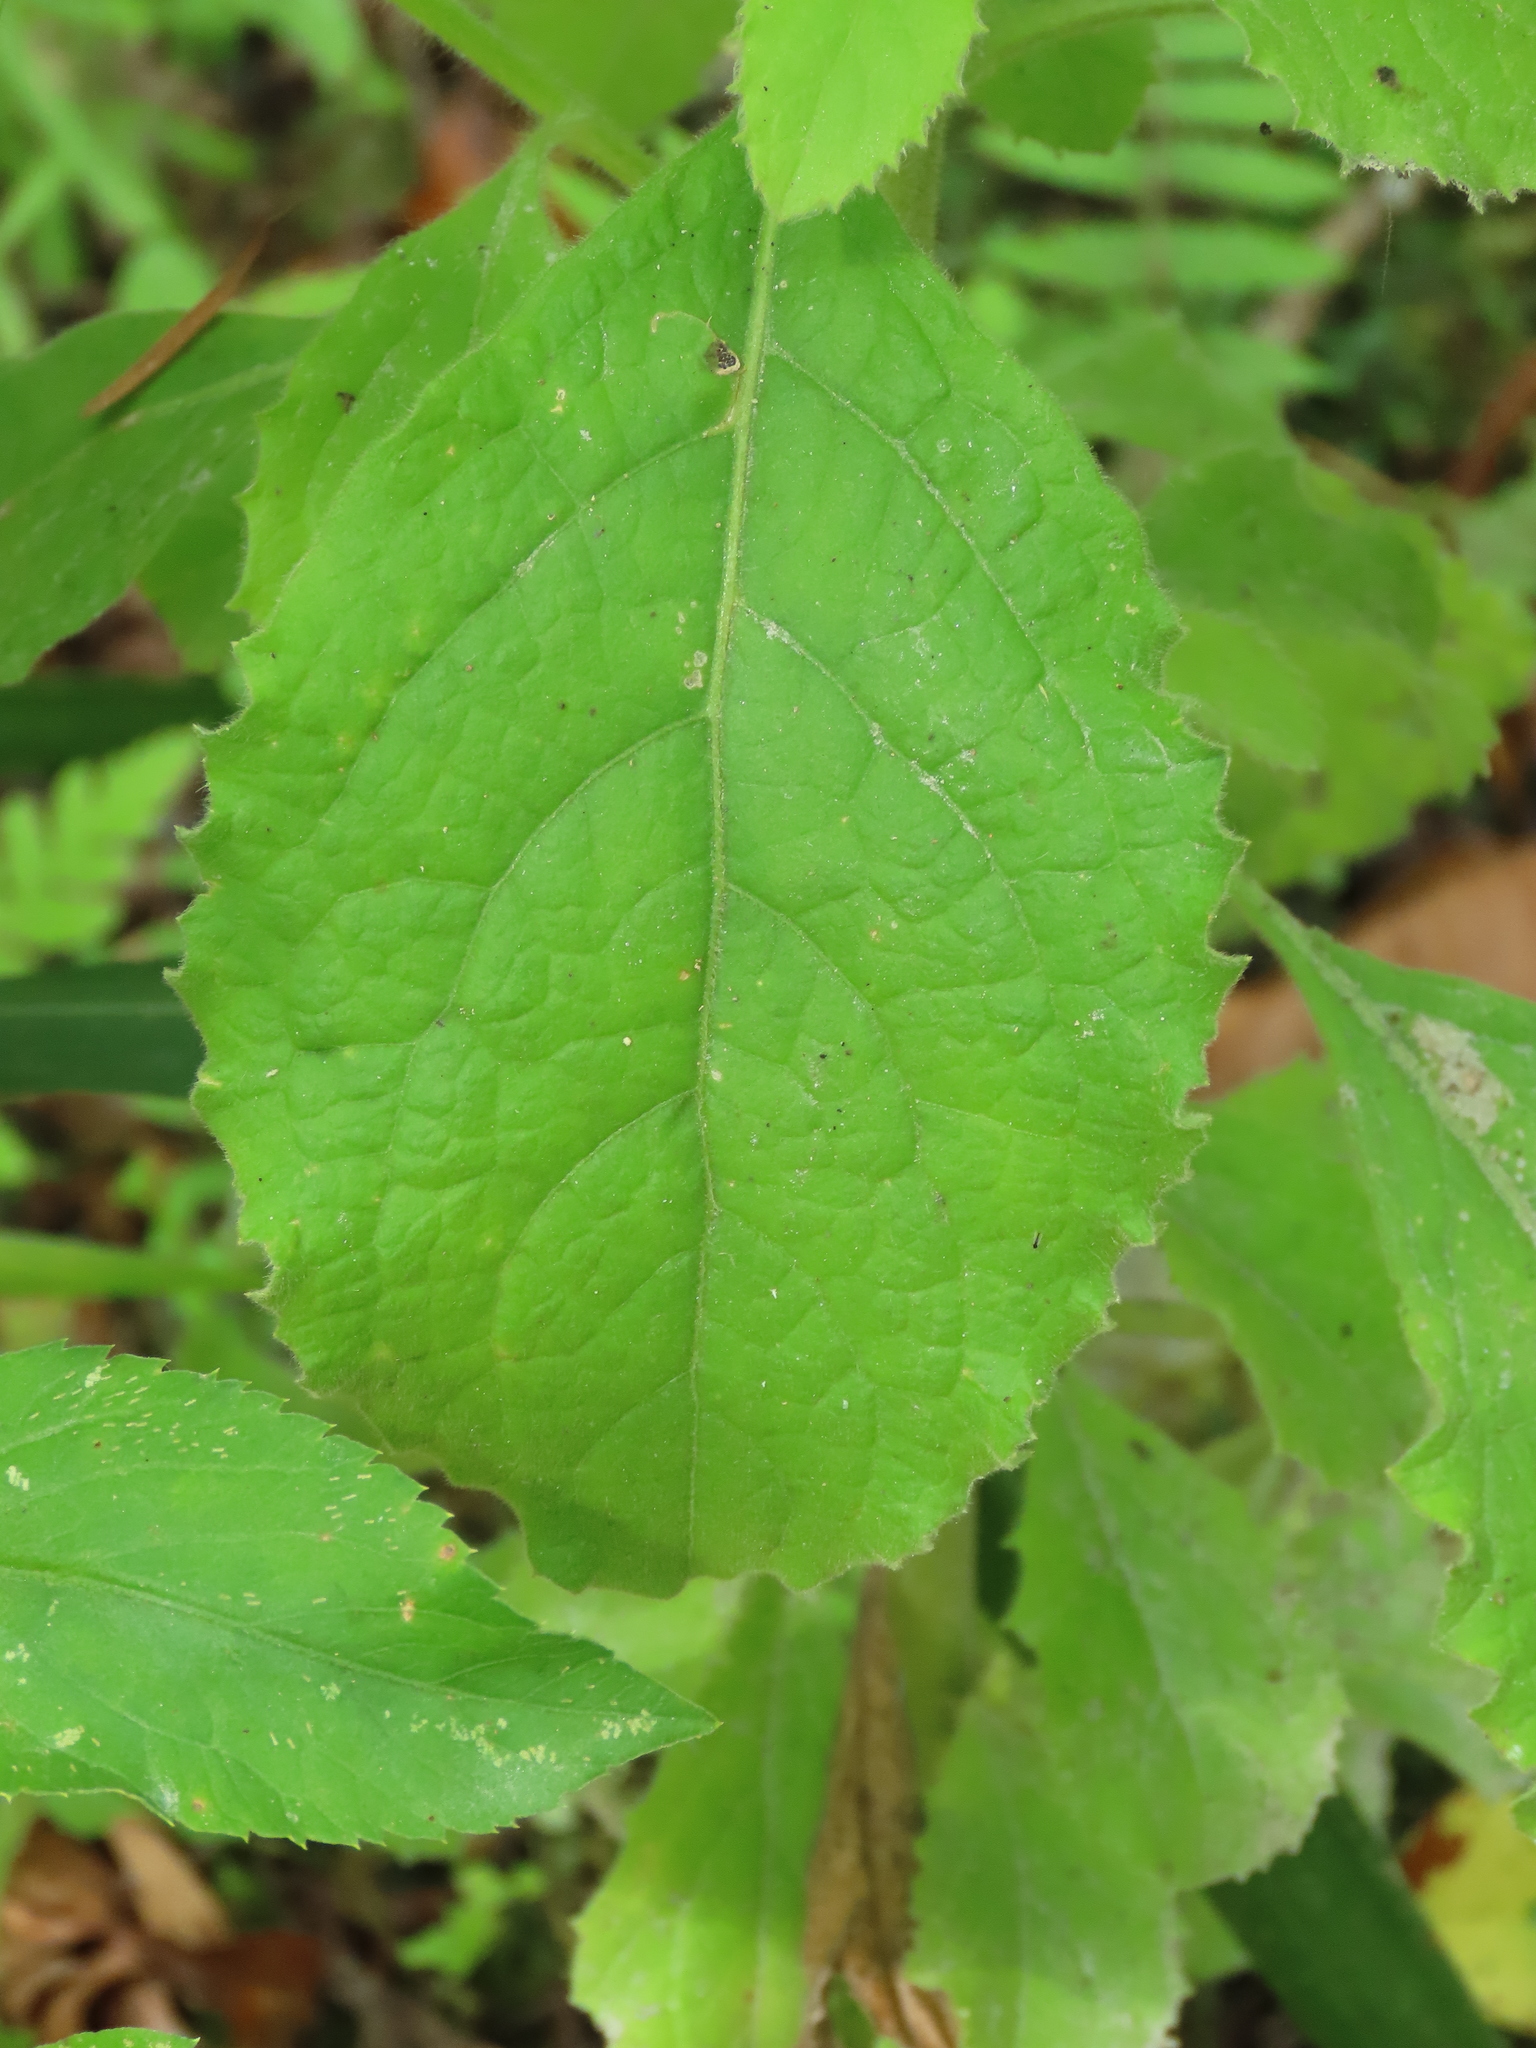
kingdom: Plantae
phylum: Tracheophyta
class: Magnoliopsida
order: Asterales
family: Asteraceae
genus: Blumea
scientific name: Blumea axillaris
